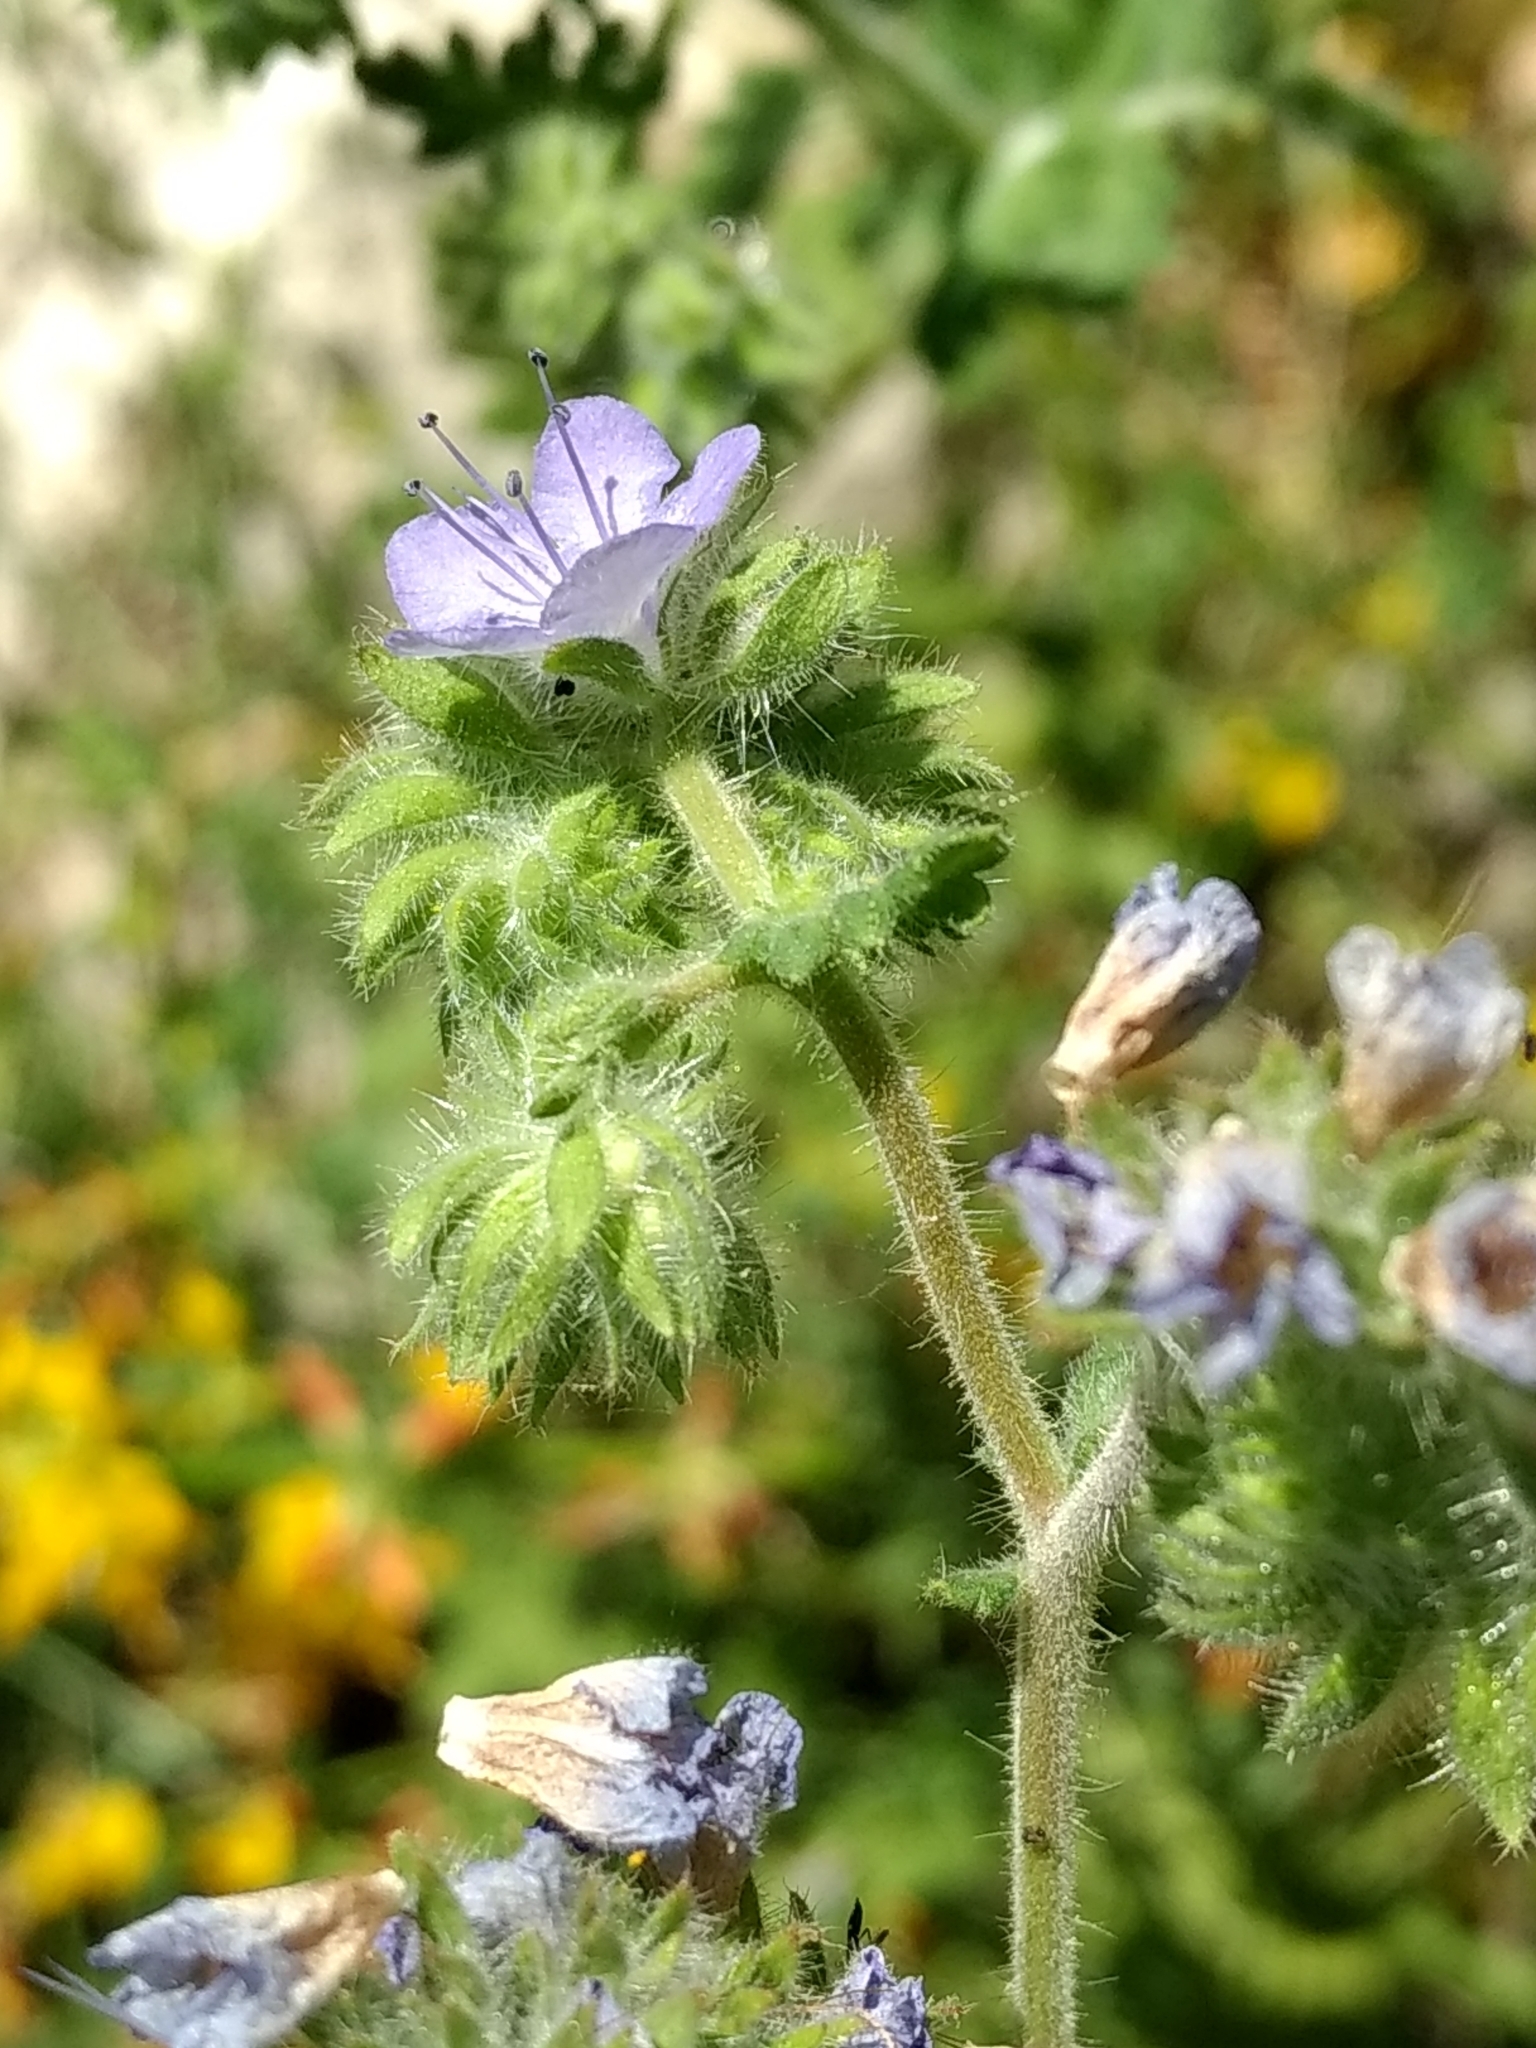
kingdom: Plantae
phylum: Tracheophyta
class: Magnoliopsida
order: Boraginales
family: Hydrophyllaceae
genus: Phacelia
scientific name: Phacelia distans
